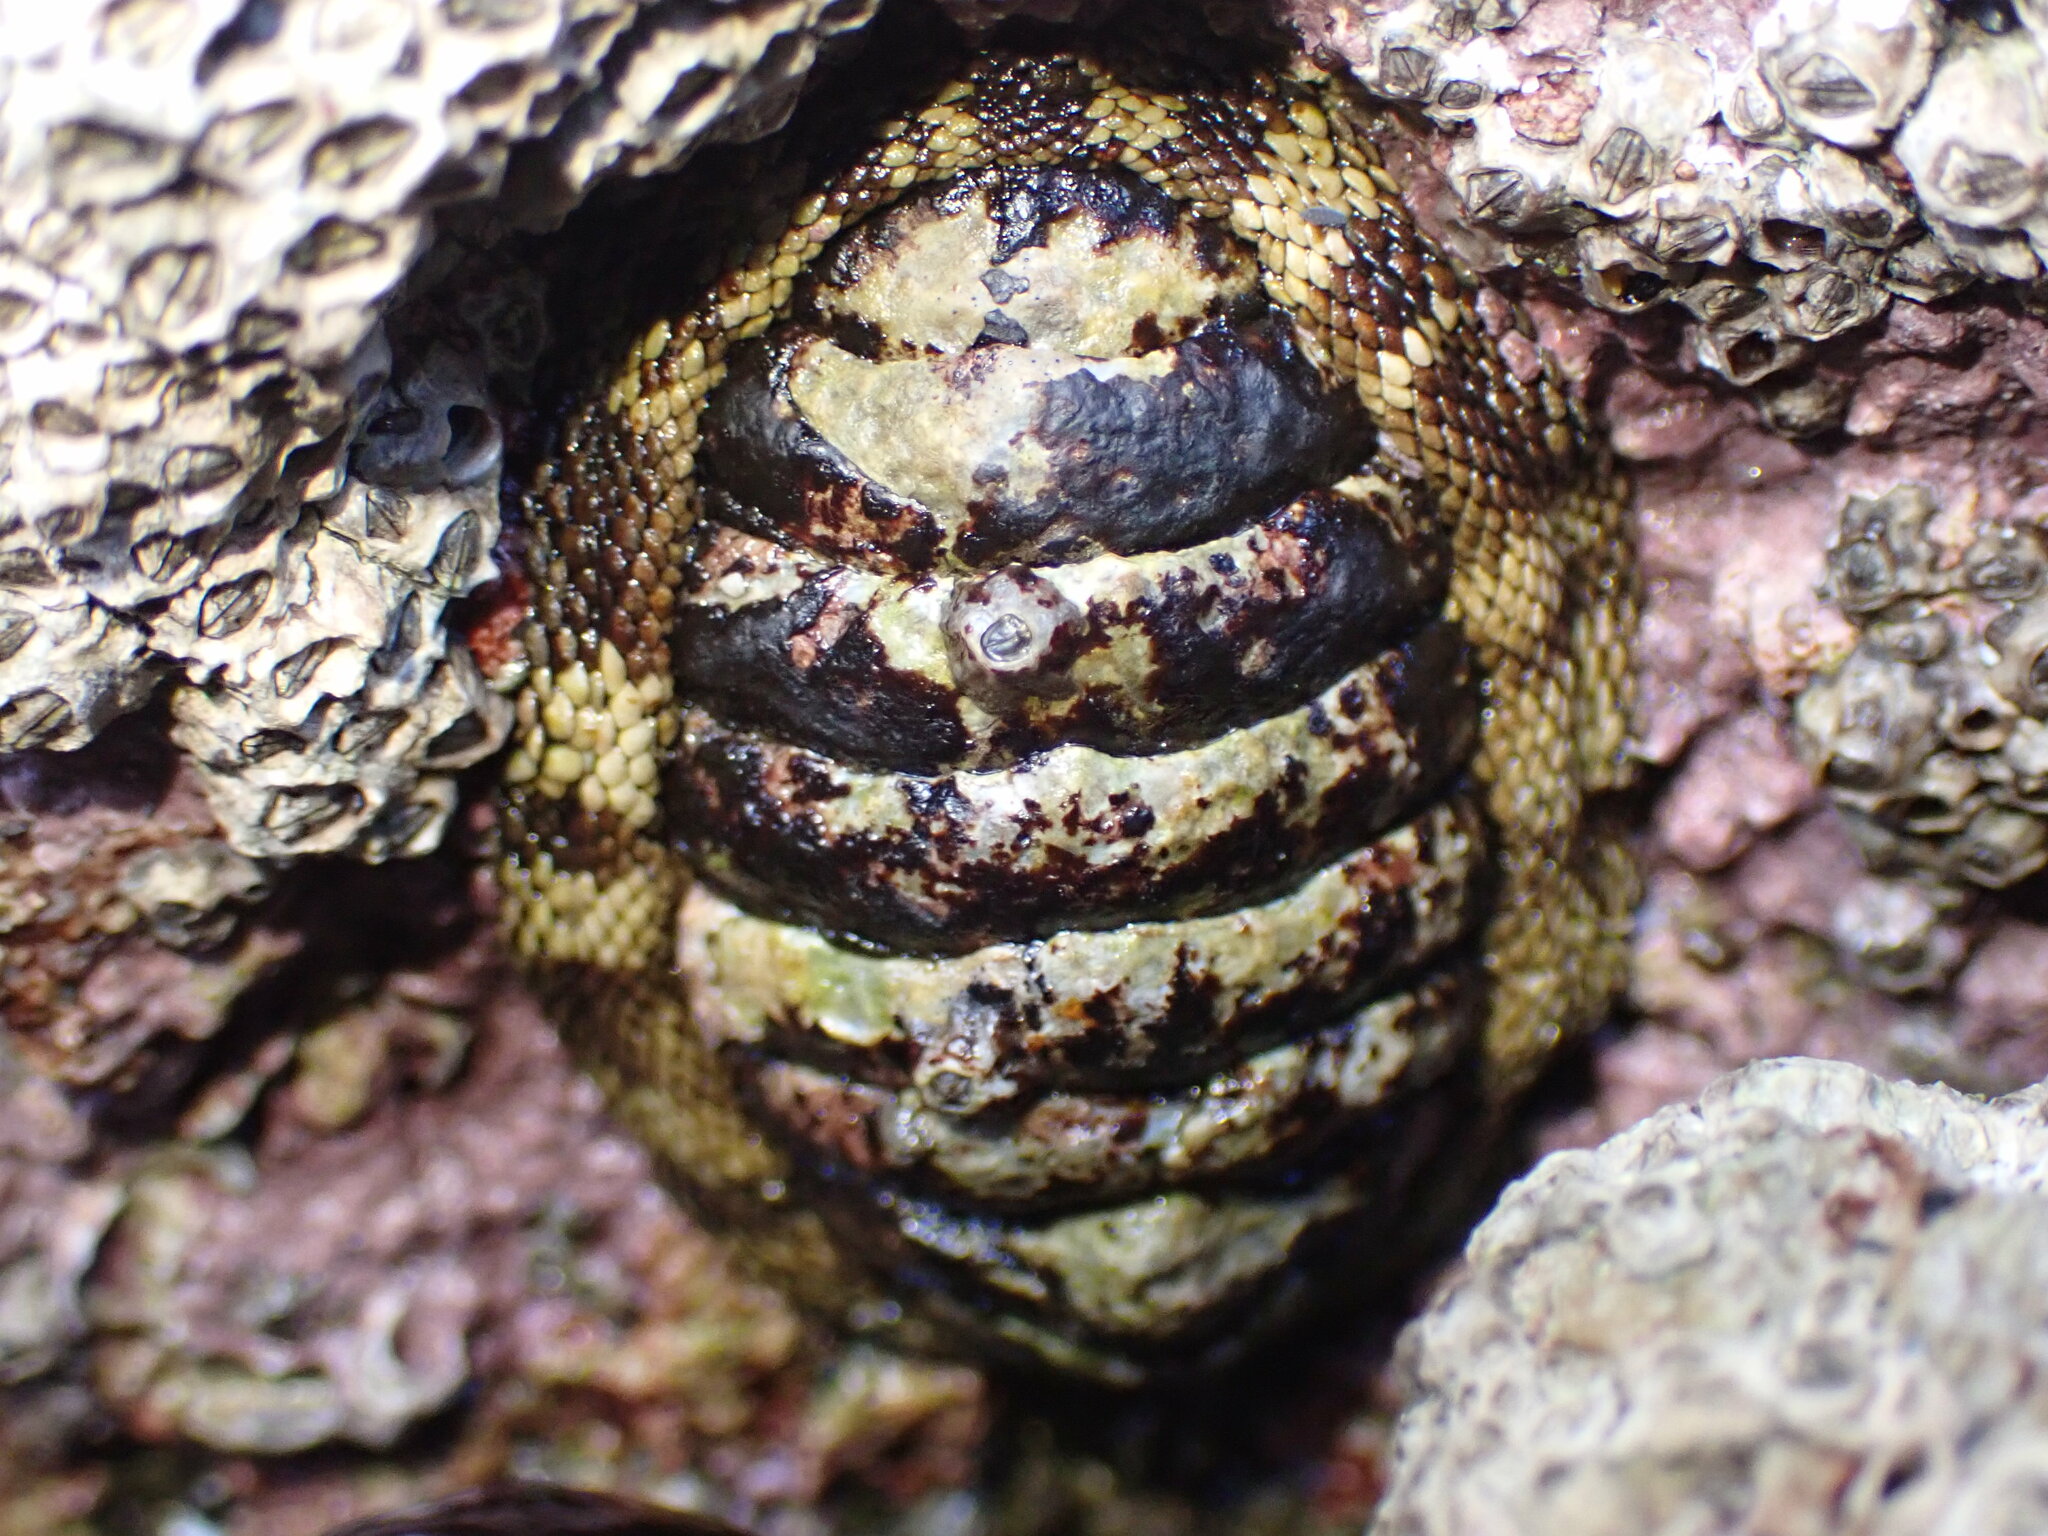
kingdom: Animalia
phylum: Mollusca
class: Polyplacophora
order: Chitonida
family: Chitonidae
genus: Sypharochiton
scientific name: Sypharochiton pelliserpentis
